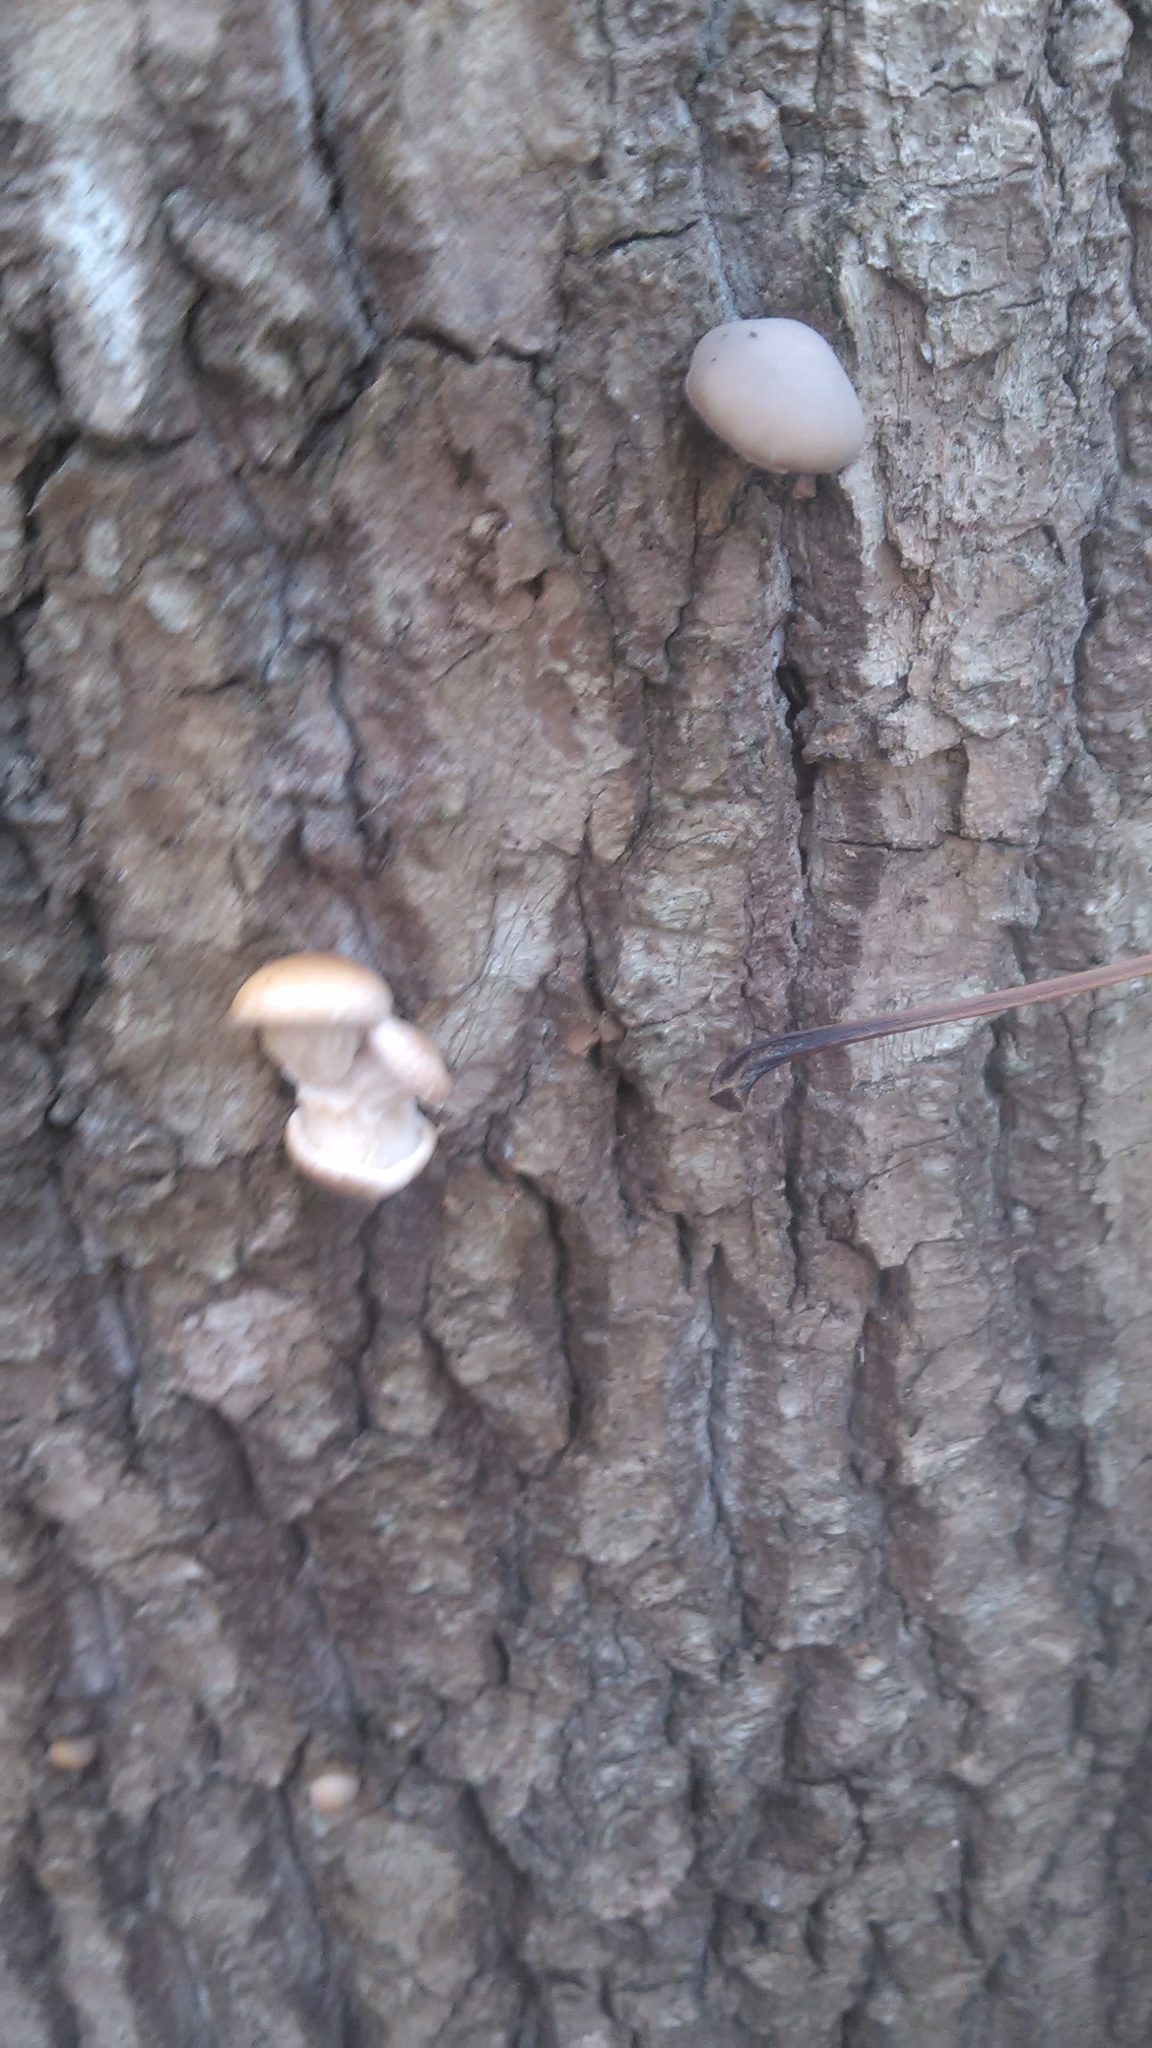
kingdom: Fungi
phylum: Basidiomycota
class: Agaricomycetes
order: Agaricales
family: Pleurotaceae
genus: Pleurotus
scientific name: Pleurotus populinus
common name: Aspen oyster mushroom
